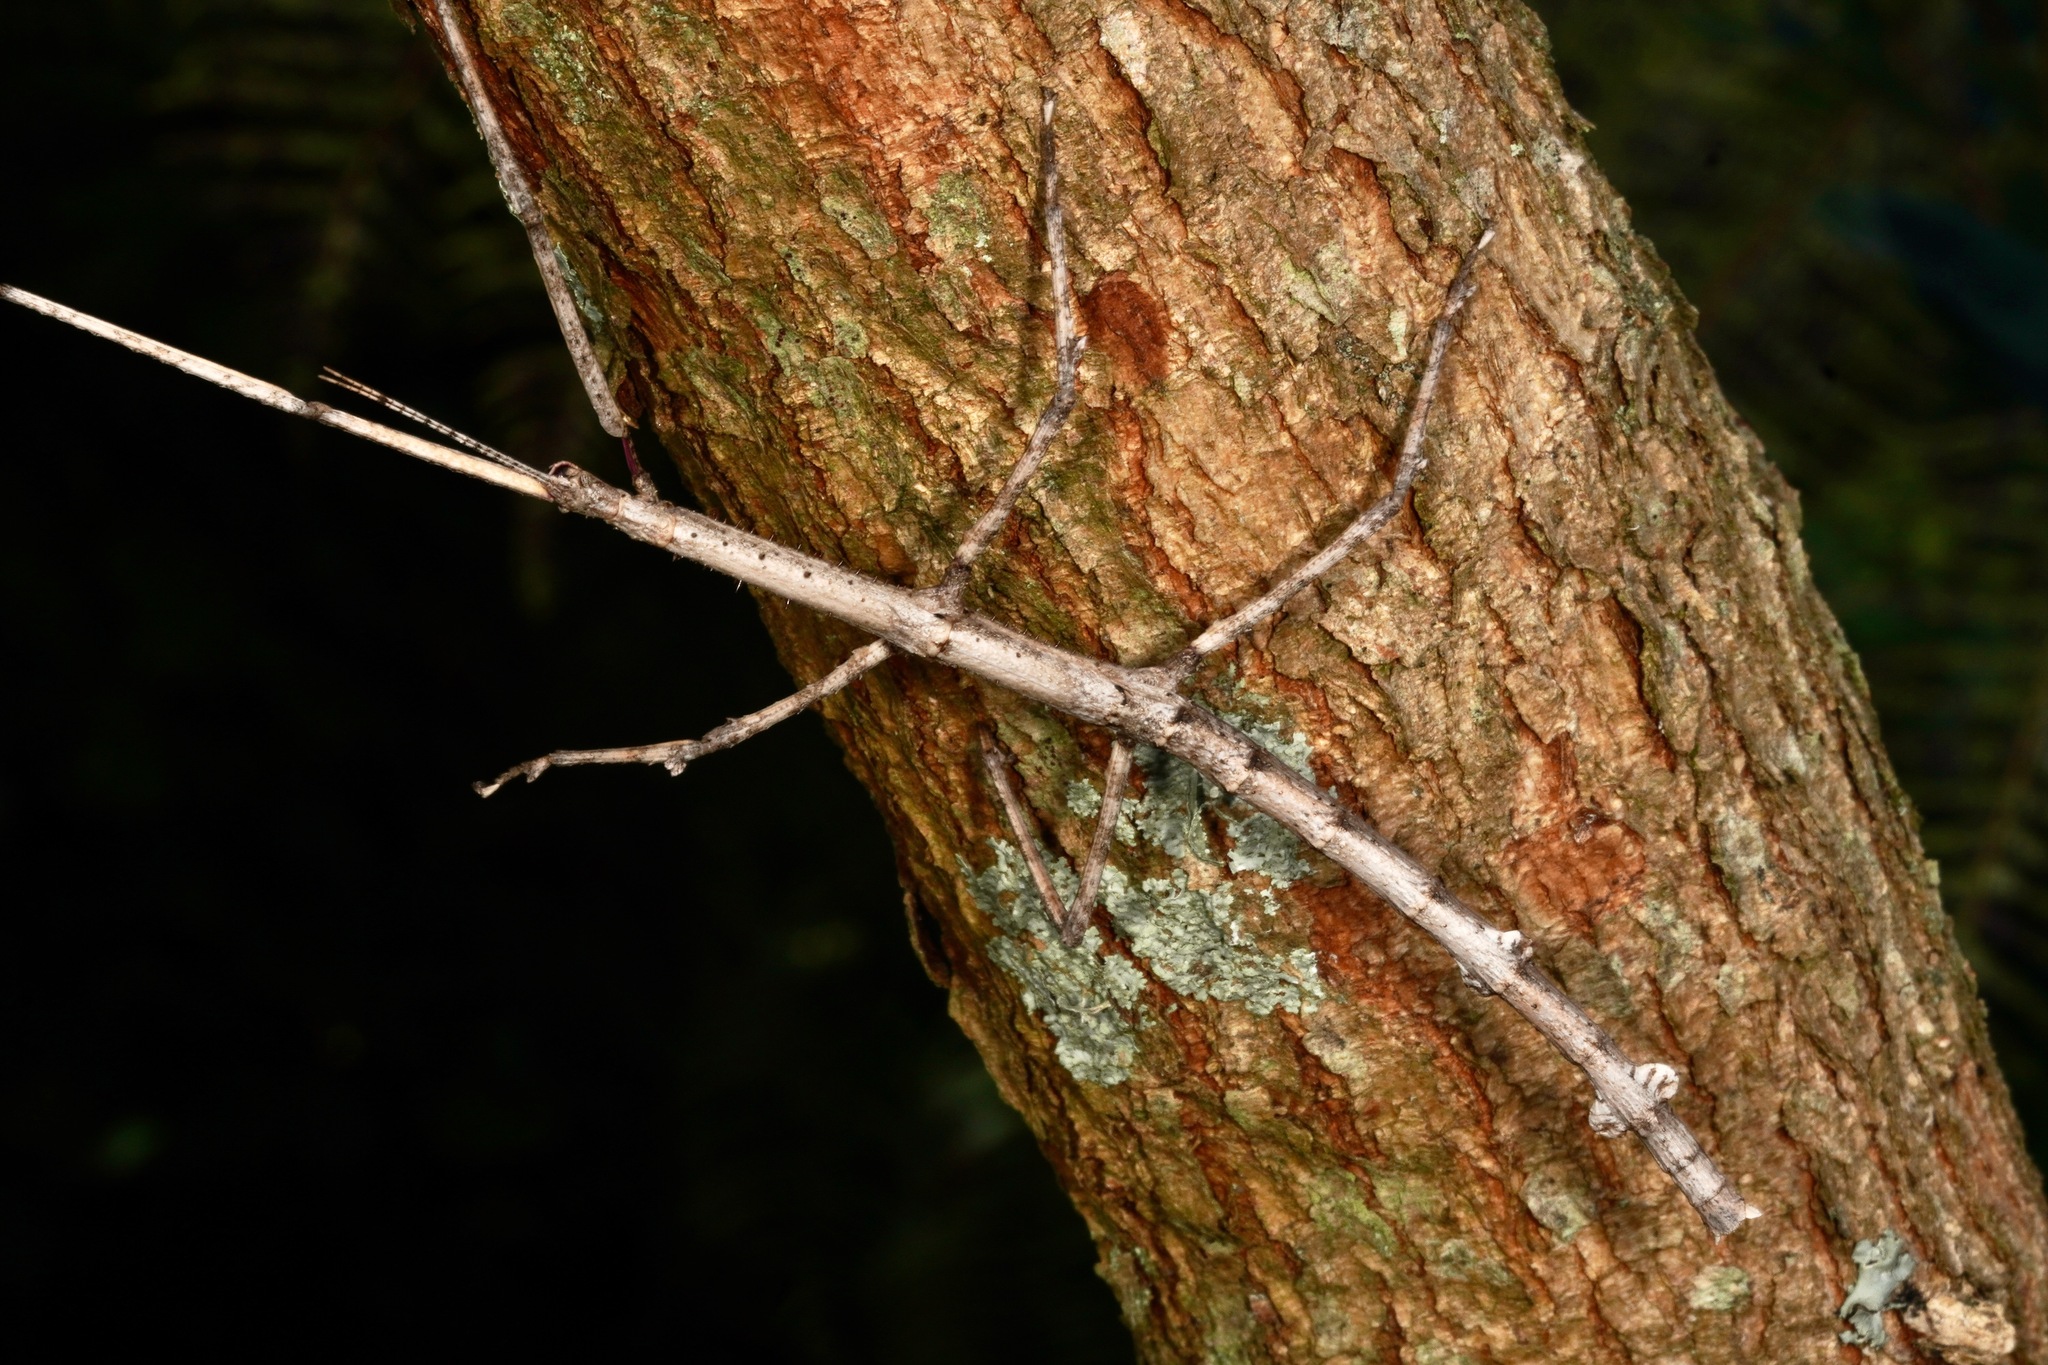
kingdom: Animalia
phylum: Arthropoda
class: Insecta
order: Phasmida
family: Phasmatidae
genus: Argosarchus
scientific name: Argosarchus horridus
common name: Bristly stick insect
